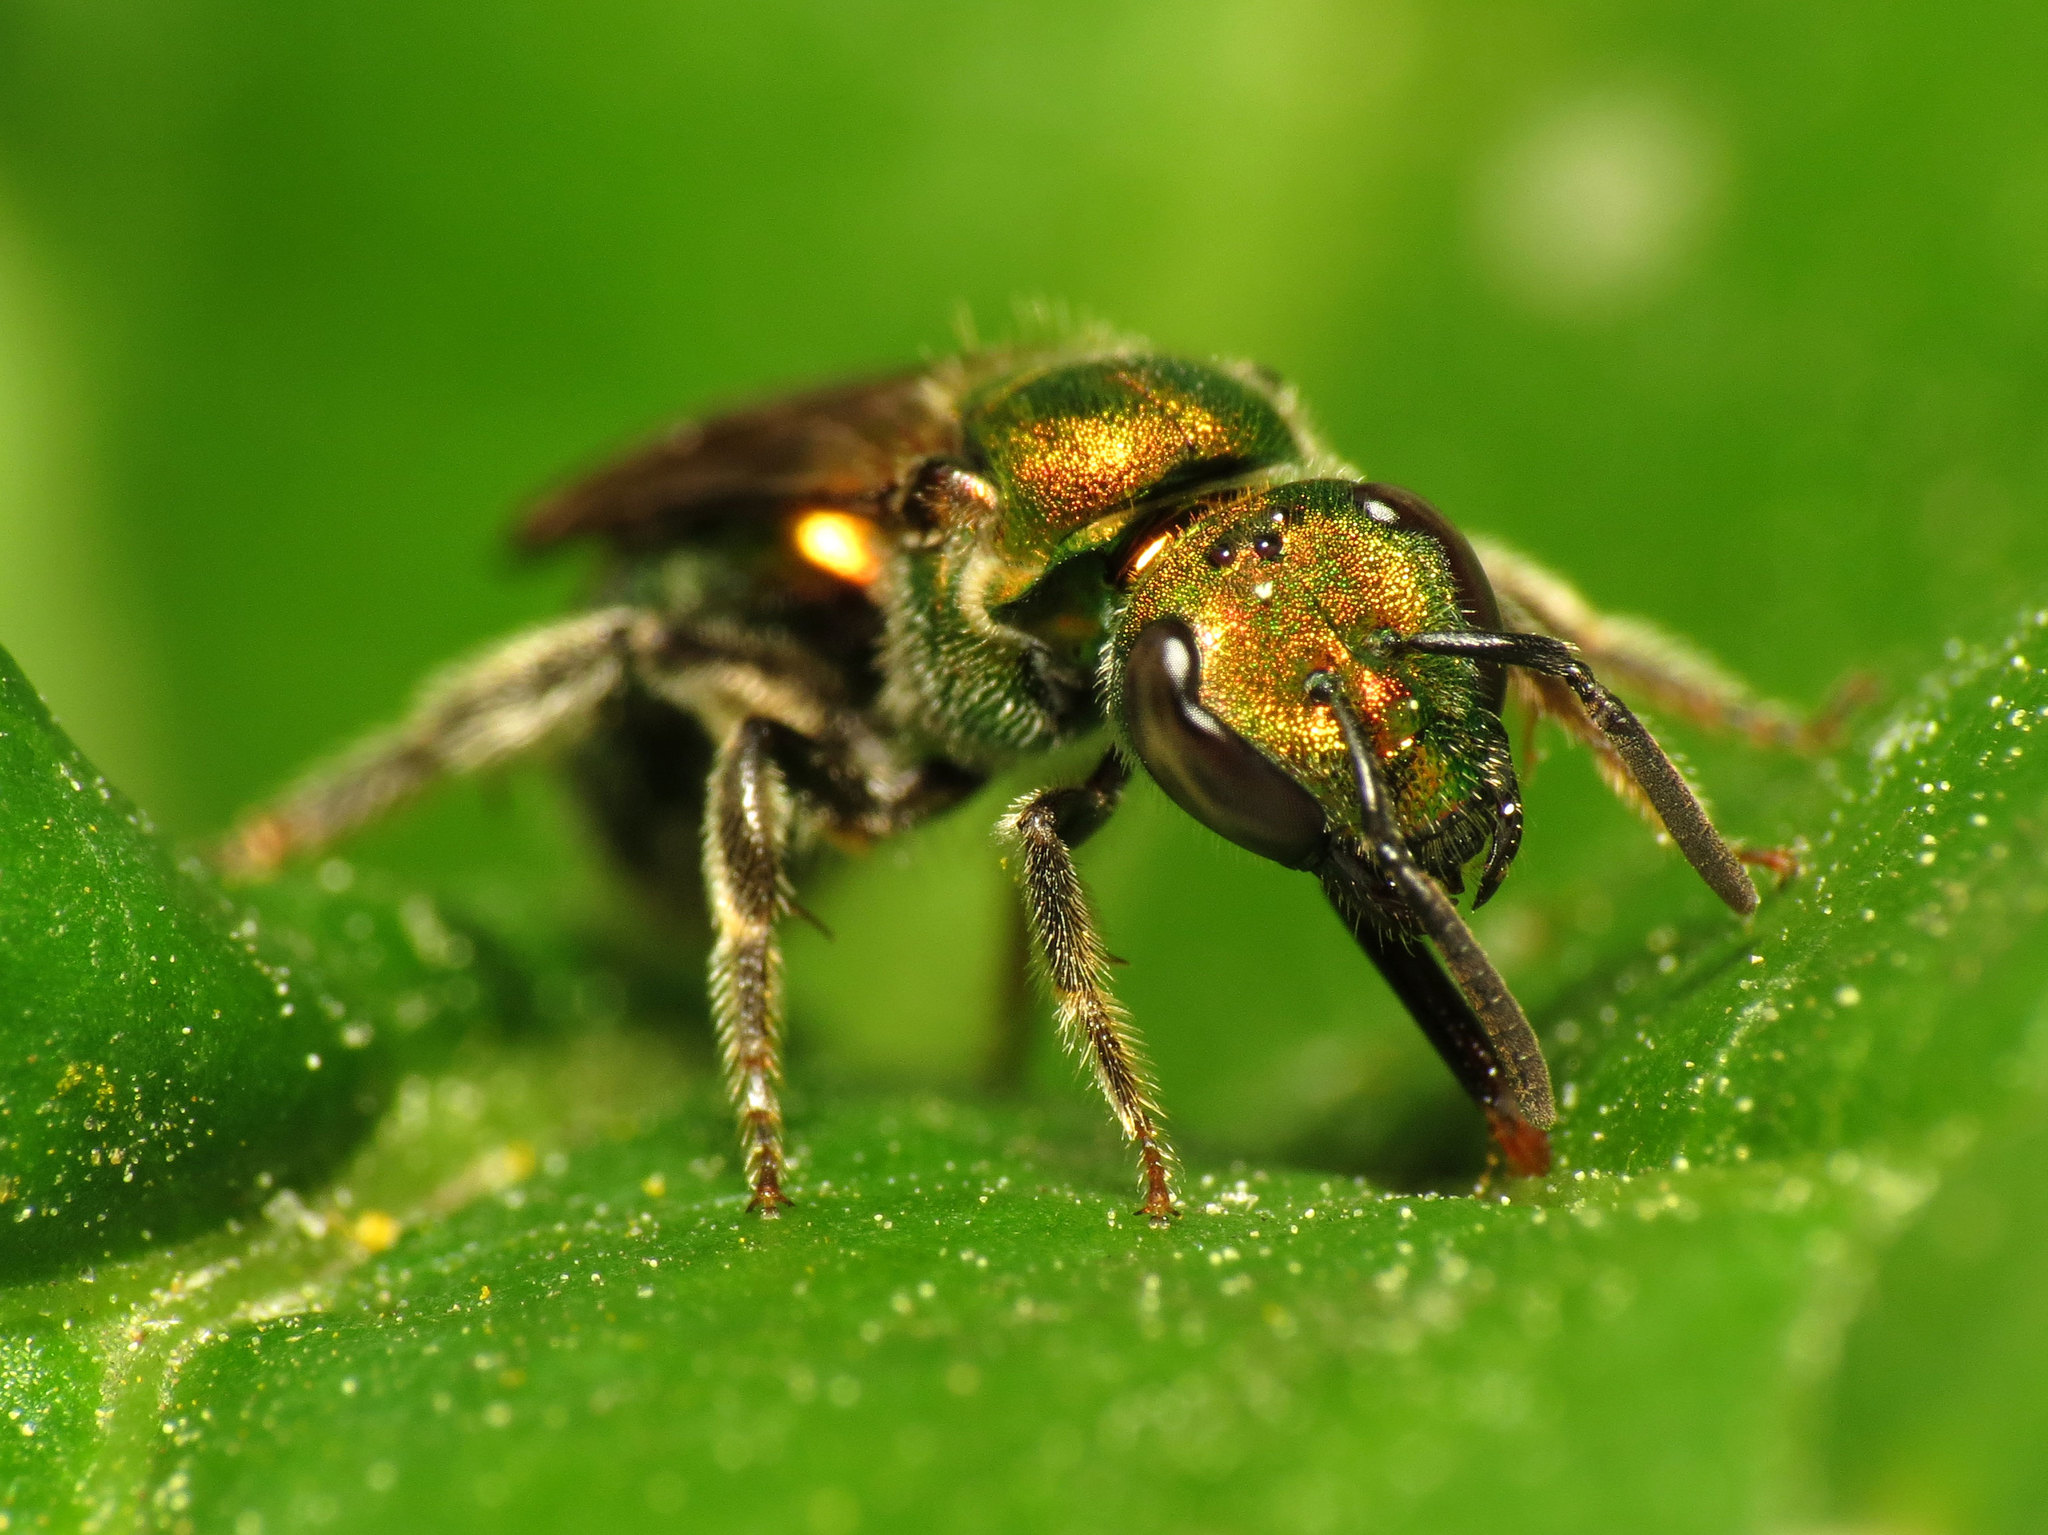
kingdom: Animalia
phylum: Arthropoda
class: Insecta
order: Hymenoptera
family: Halictidae
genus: Augochlora
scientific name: Augochlora pura
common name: Pure green sweat bee
